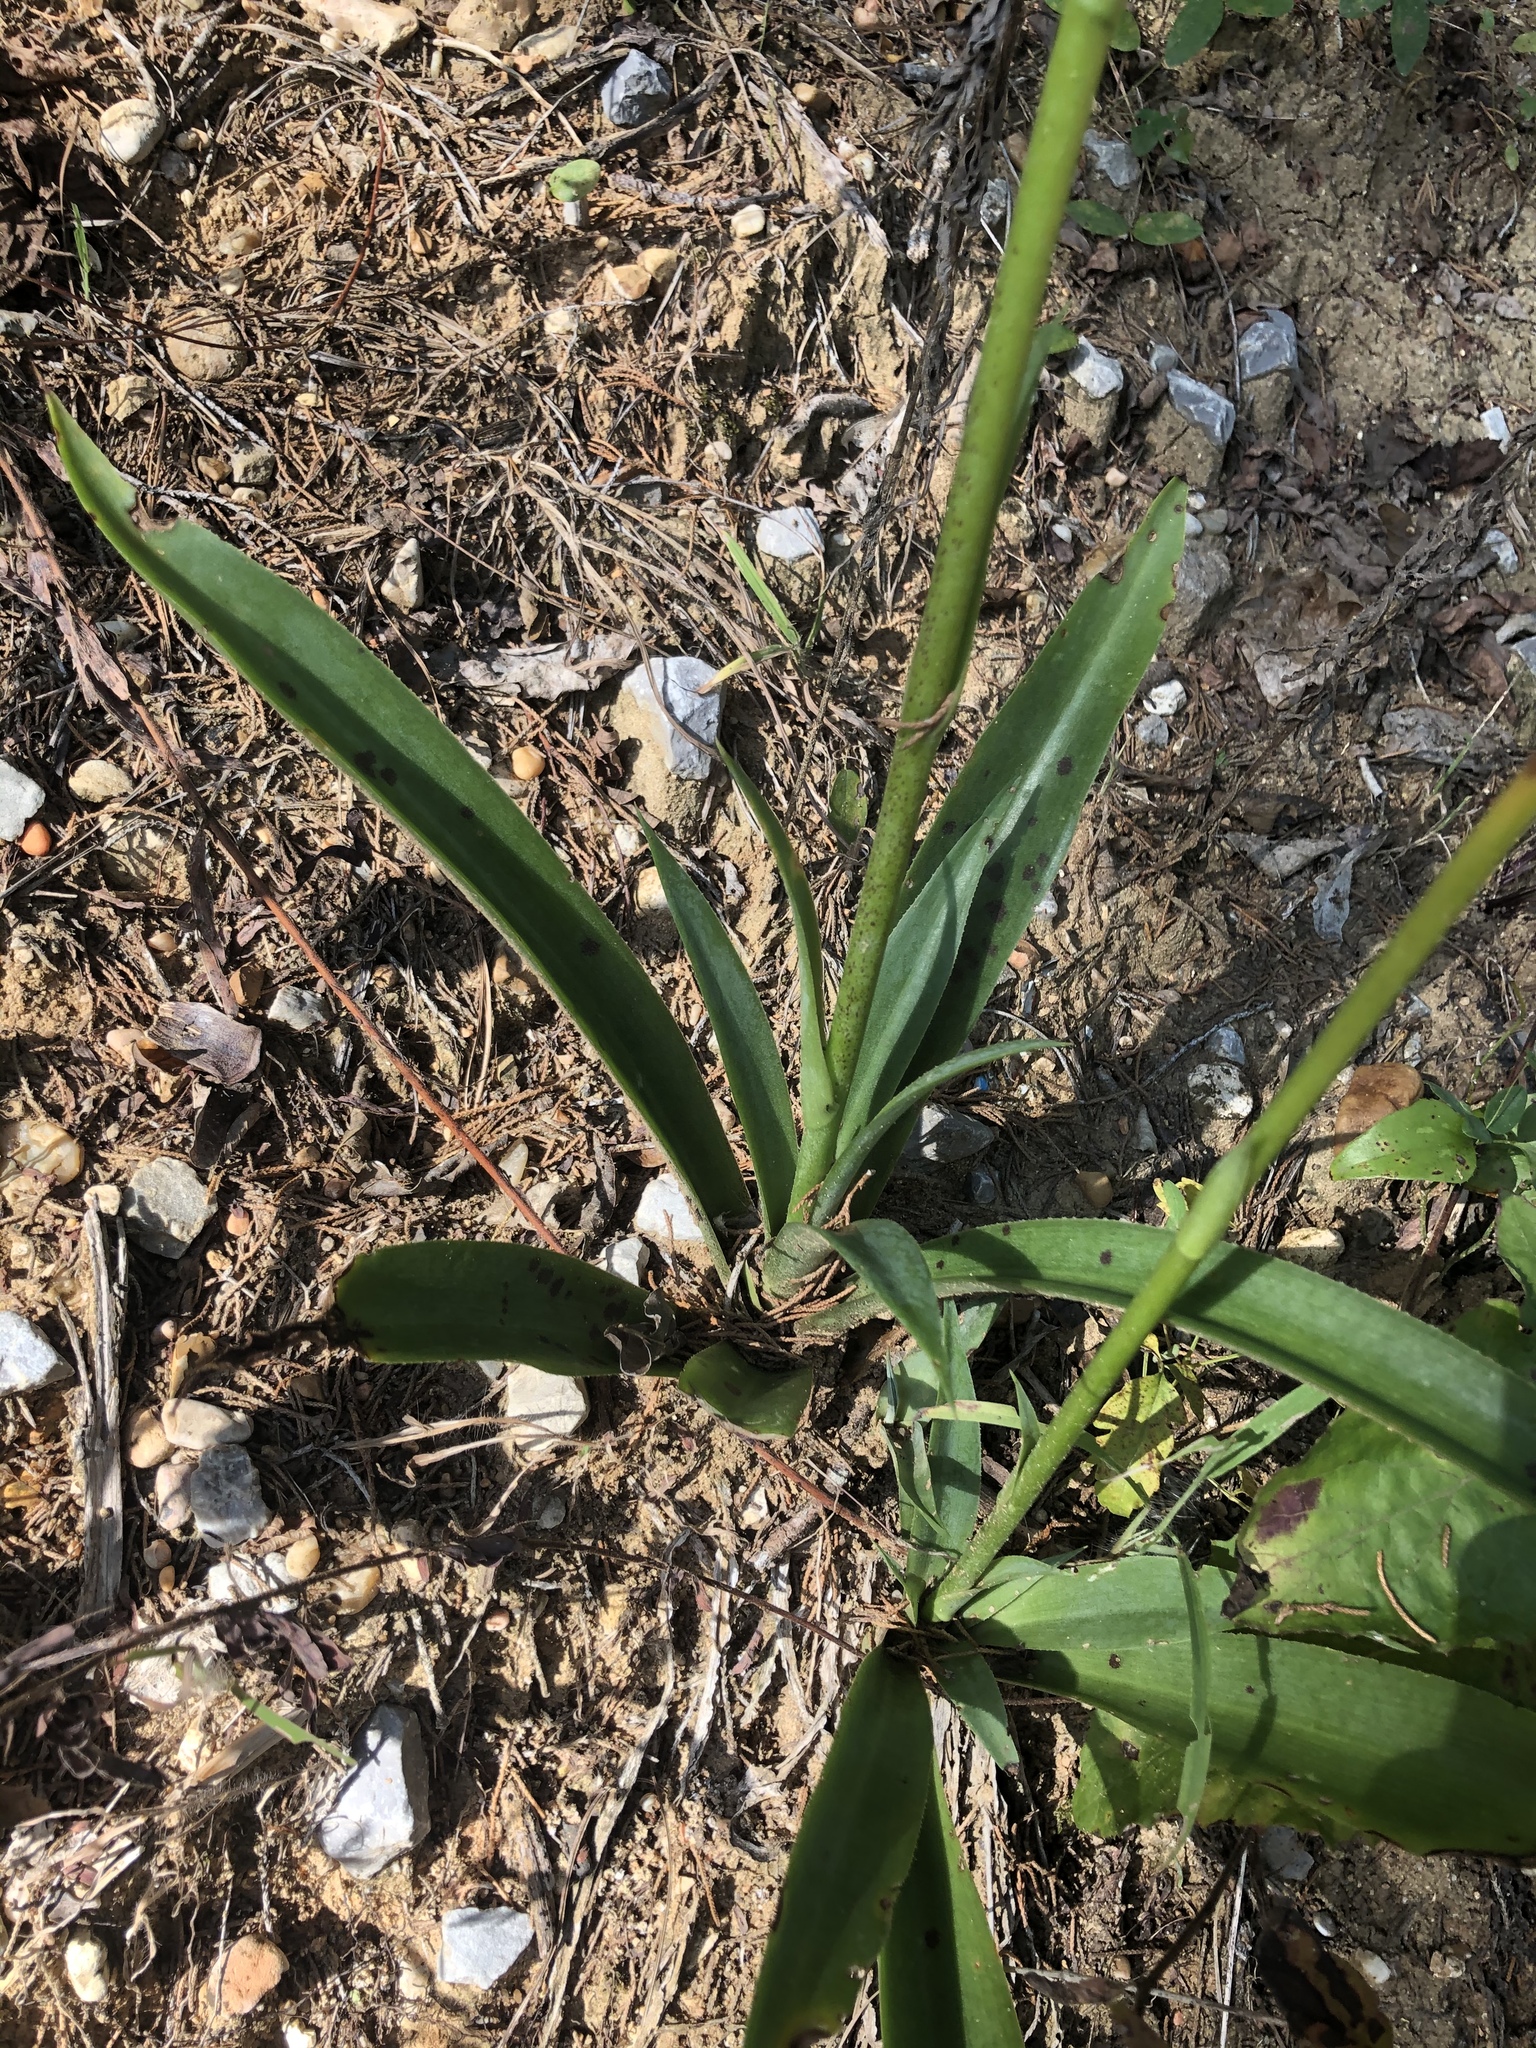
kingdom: Plantae
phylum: Tracheophyta
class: Liliopsida
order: Asparagales
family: Asparagaceae
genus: Agave
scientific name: Agave virginica
